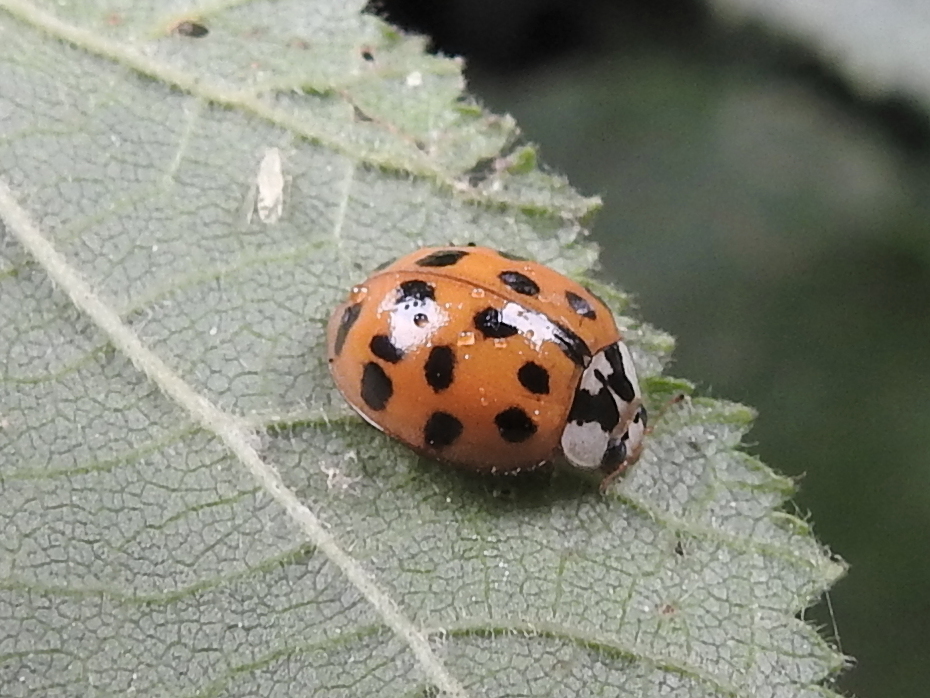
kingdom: Animalia
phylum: Arthropoda
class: Insecta
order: Coleoptera
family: Coccinellidae
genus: Harmonia
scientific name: Harmonia axyridis
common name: Harlequin ladybird
